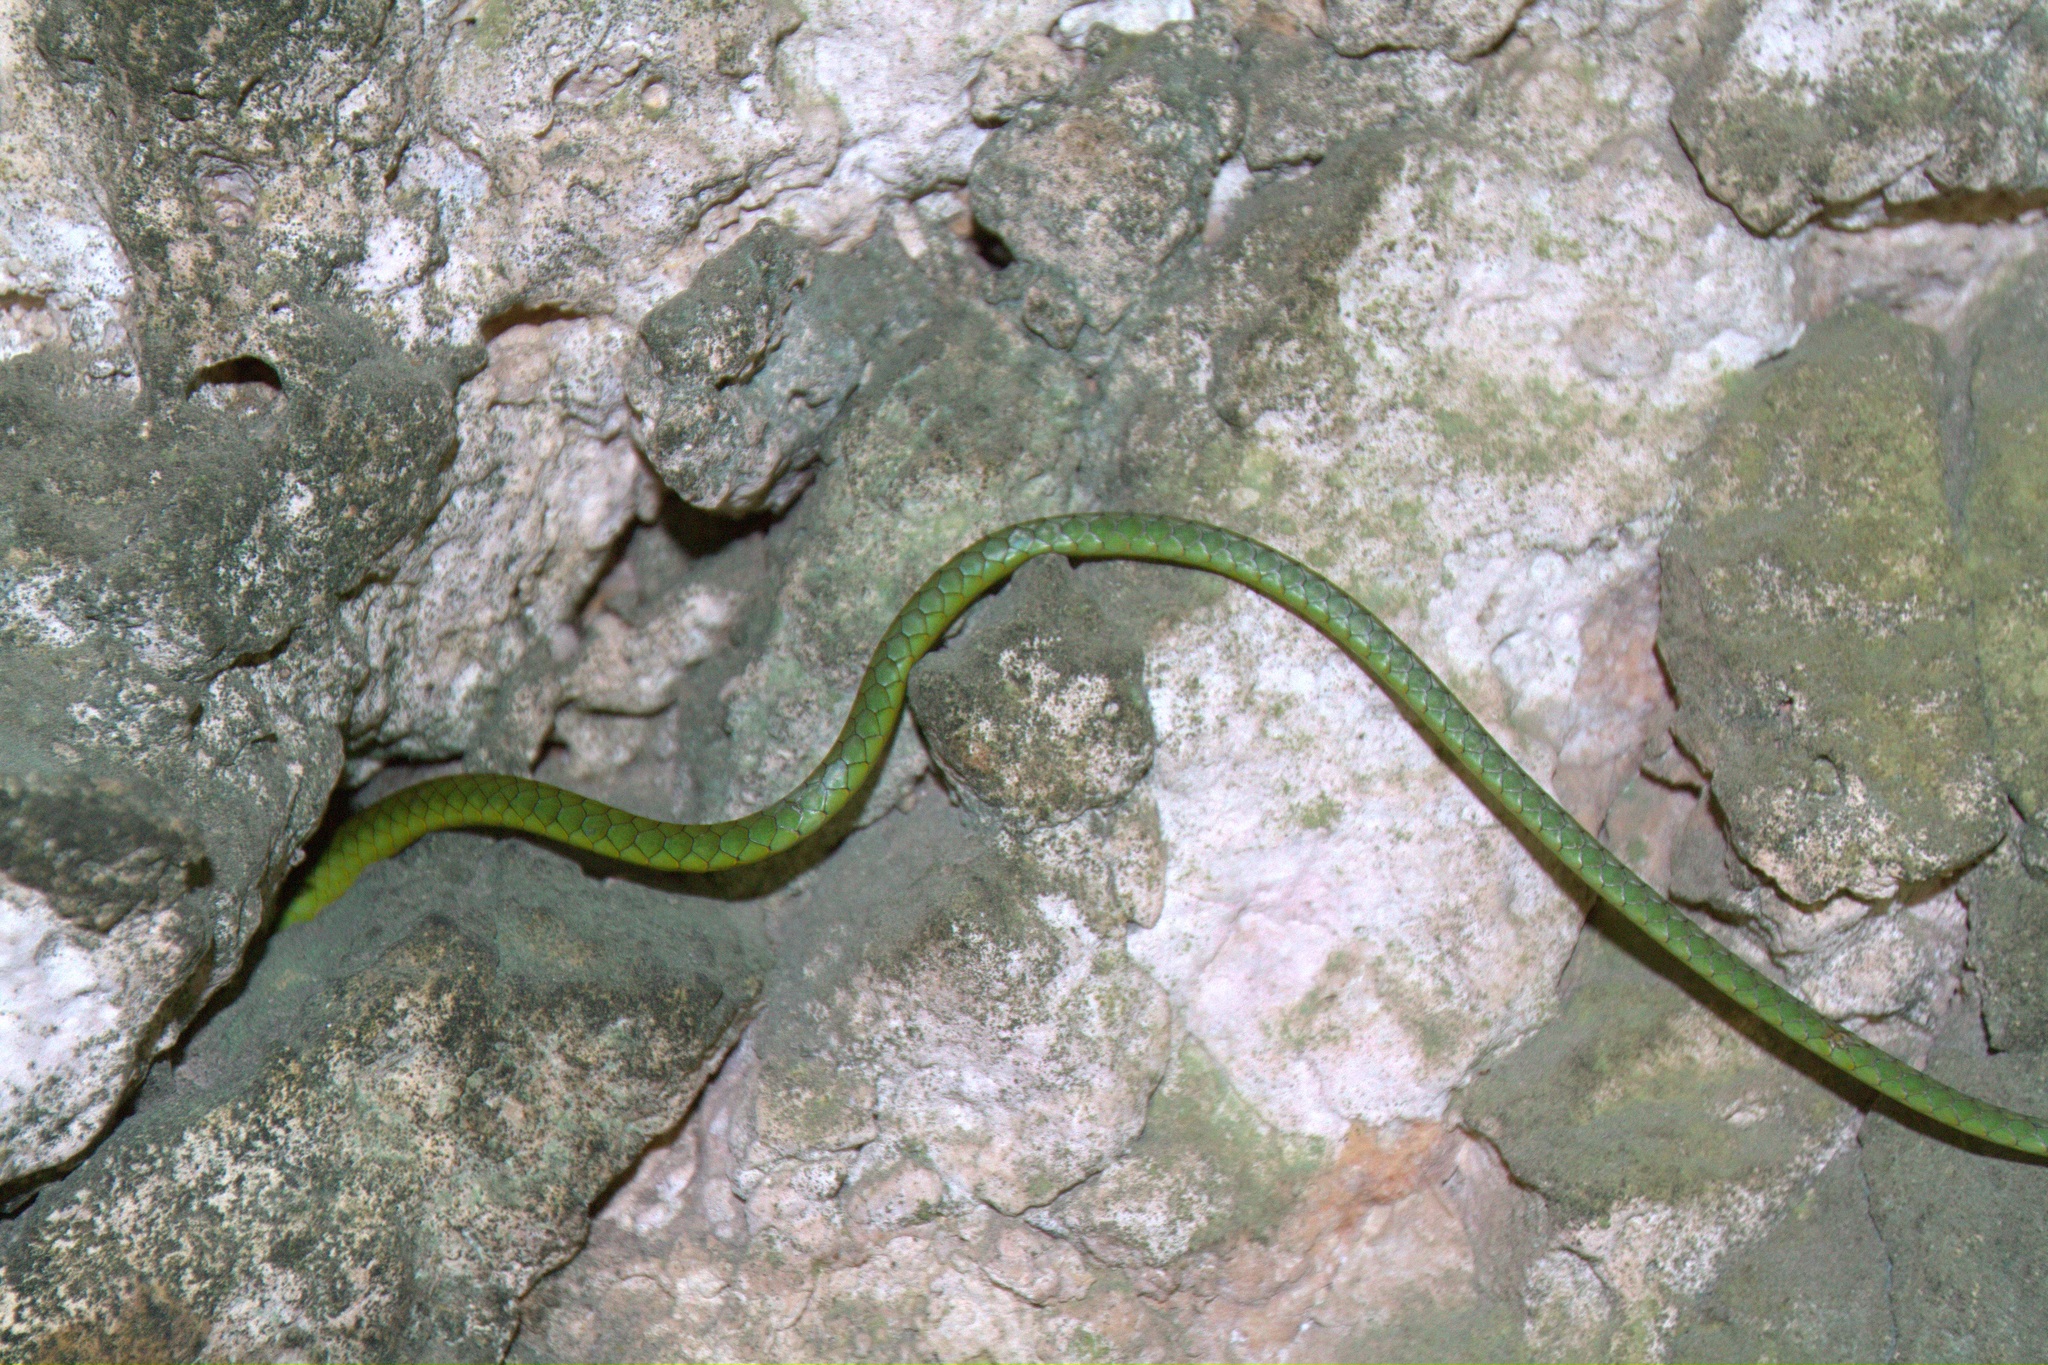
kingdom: Animalia
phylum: Chordata
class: Squamata
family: Colubridae
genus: Uromacer
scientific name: Uromacer catesbyi
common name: Catesby's pointed snake
